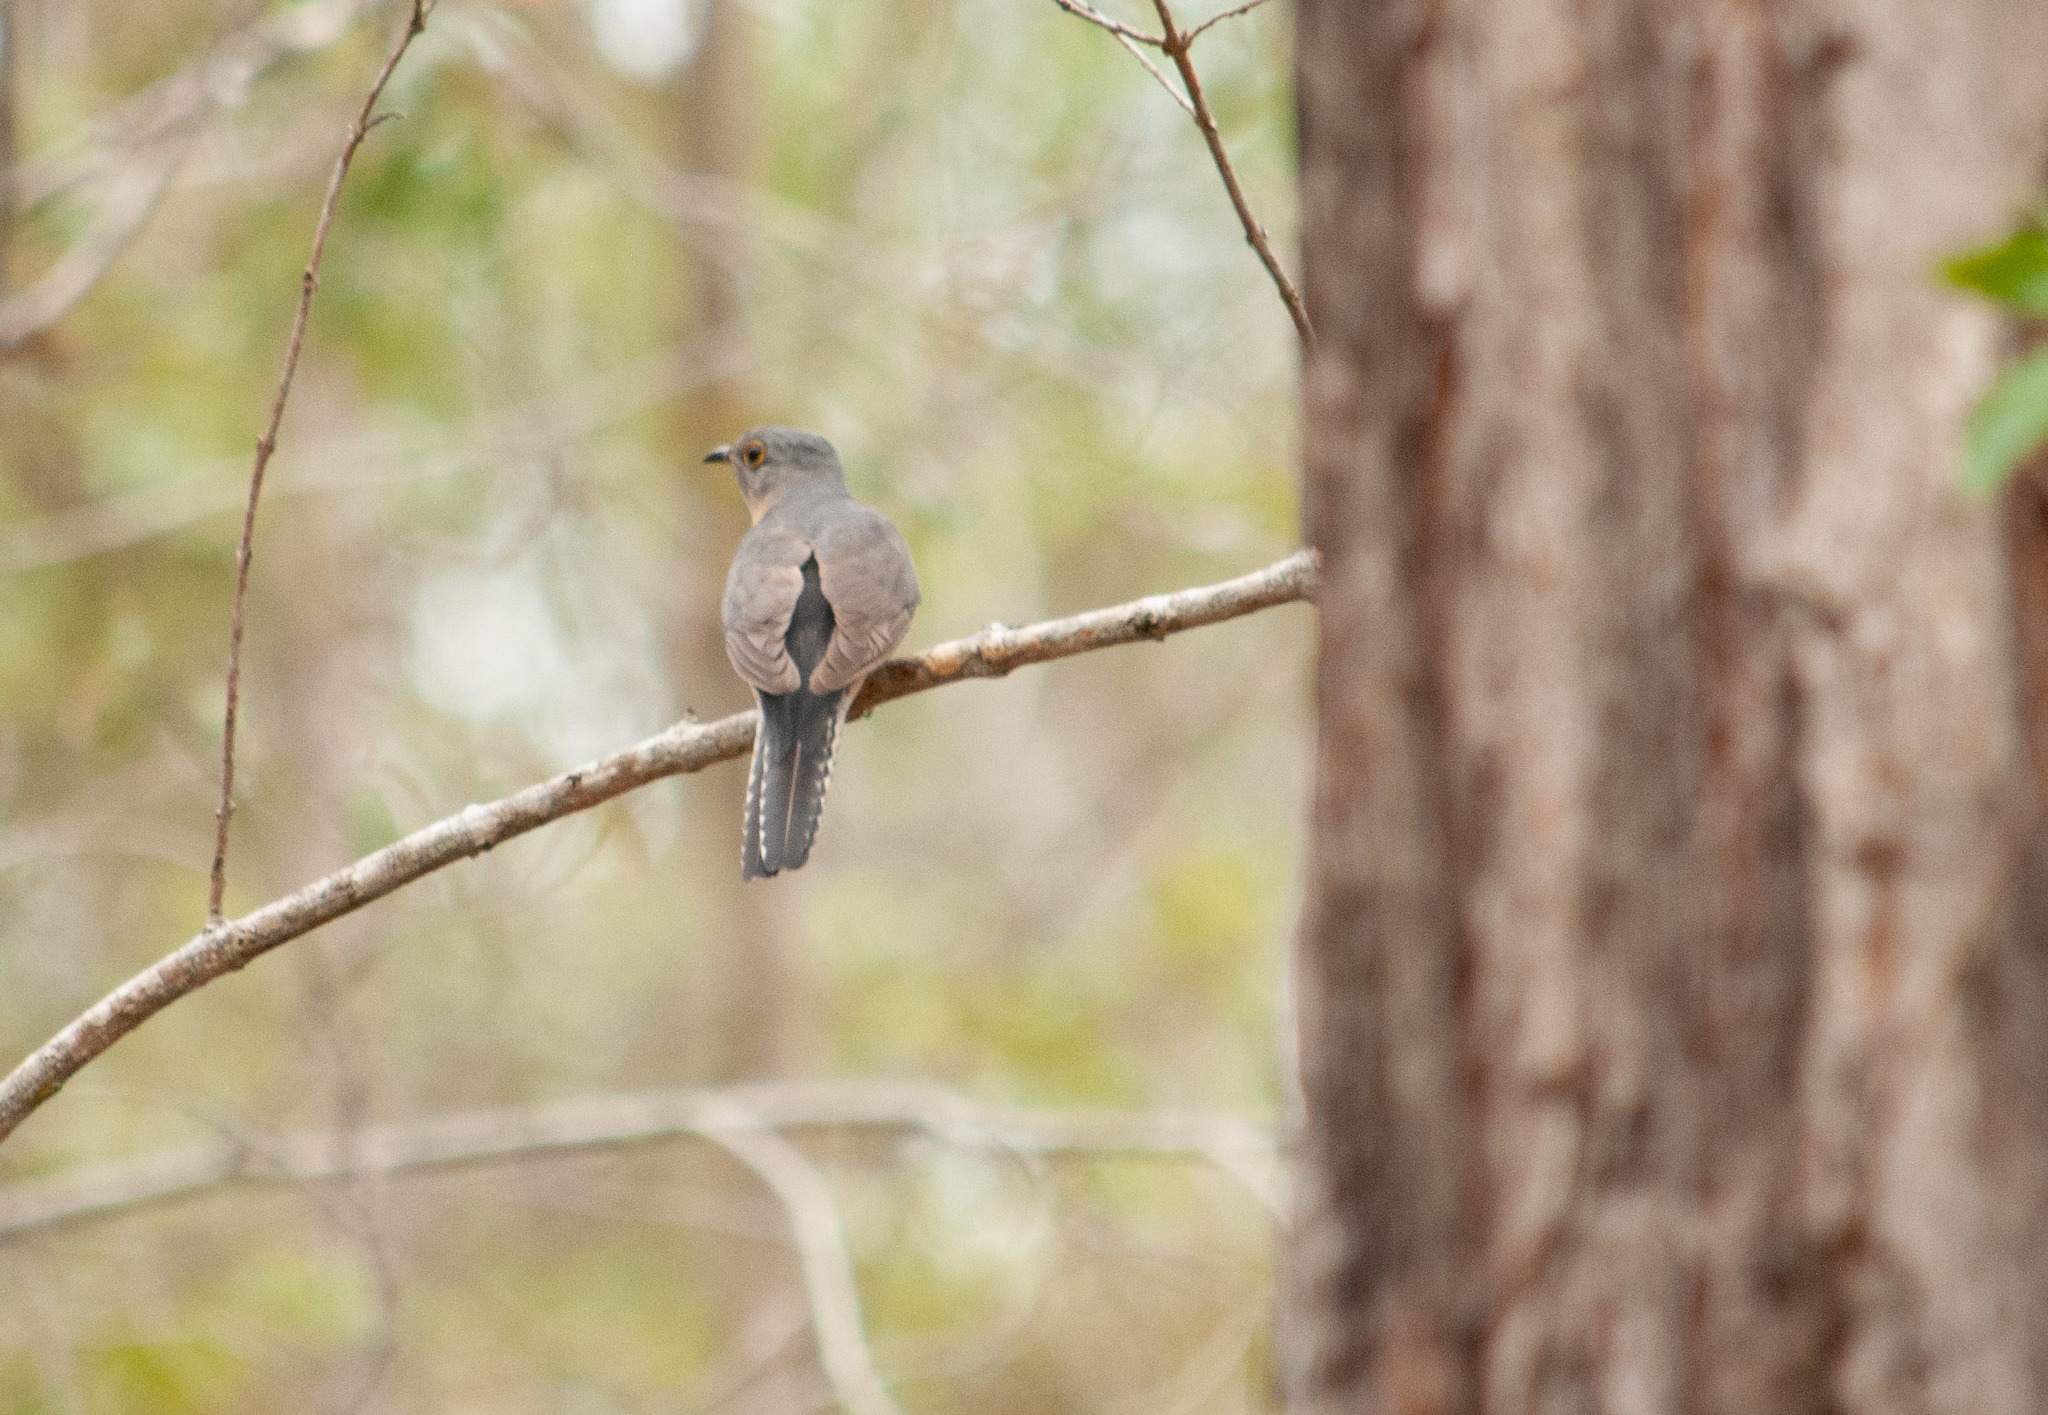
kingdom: Animalia
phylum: Chordata
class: Aves
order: Cuculiformes
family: Cuculidae
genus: Cacomantis
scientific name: Cacomantis flabelliformis
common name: Fan-tailed cuckoo
